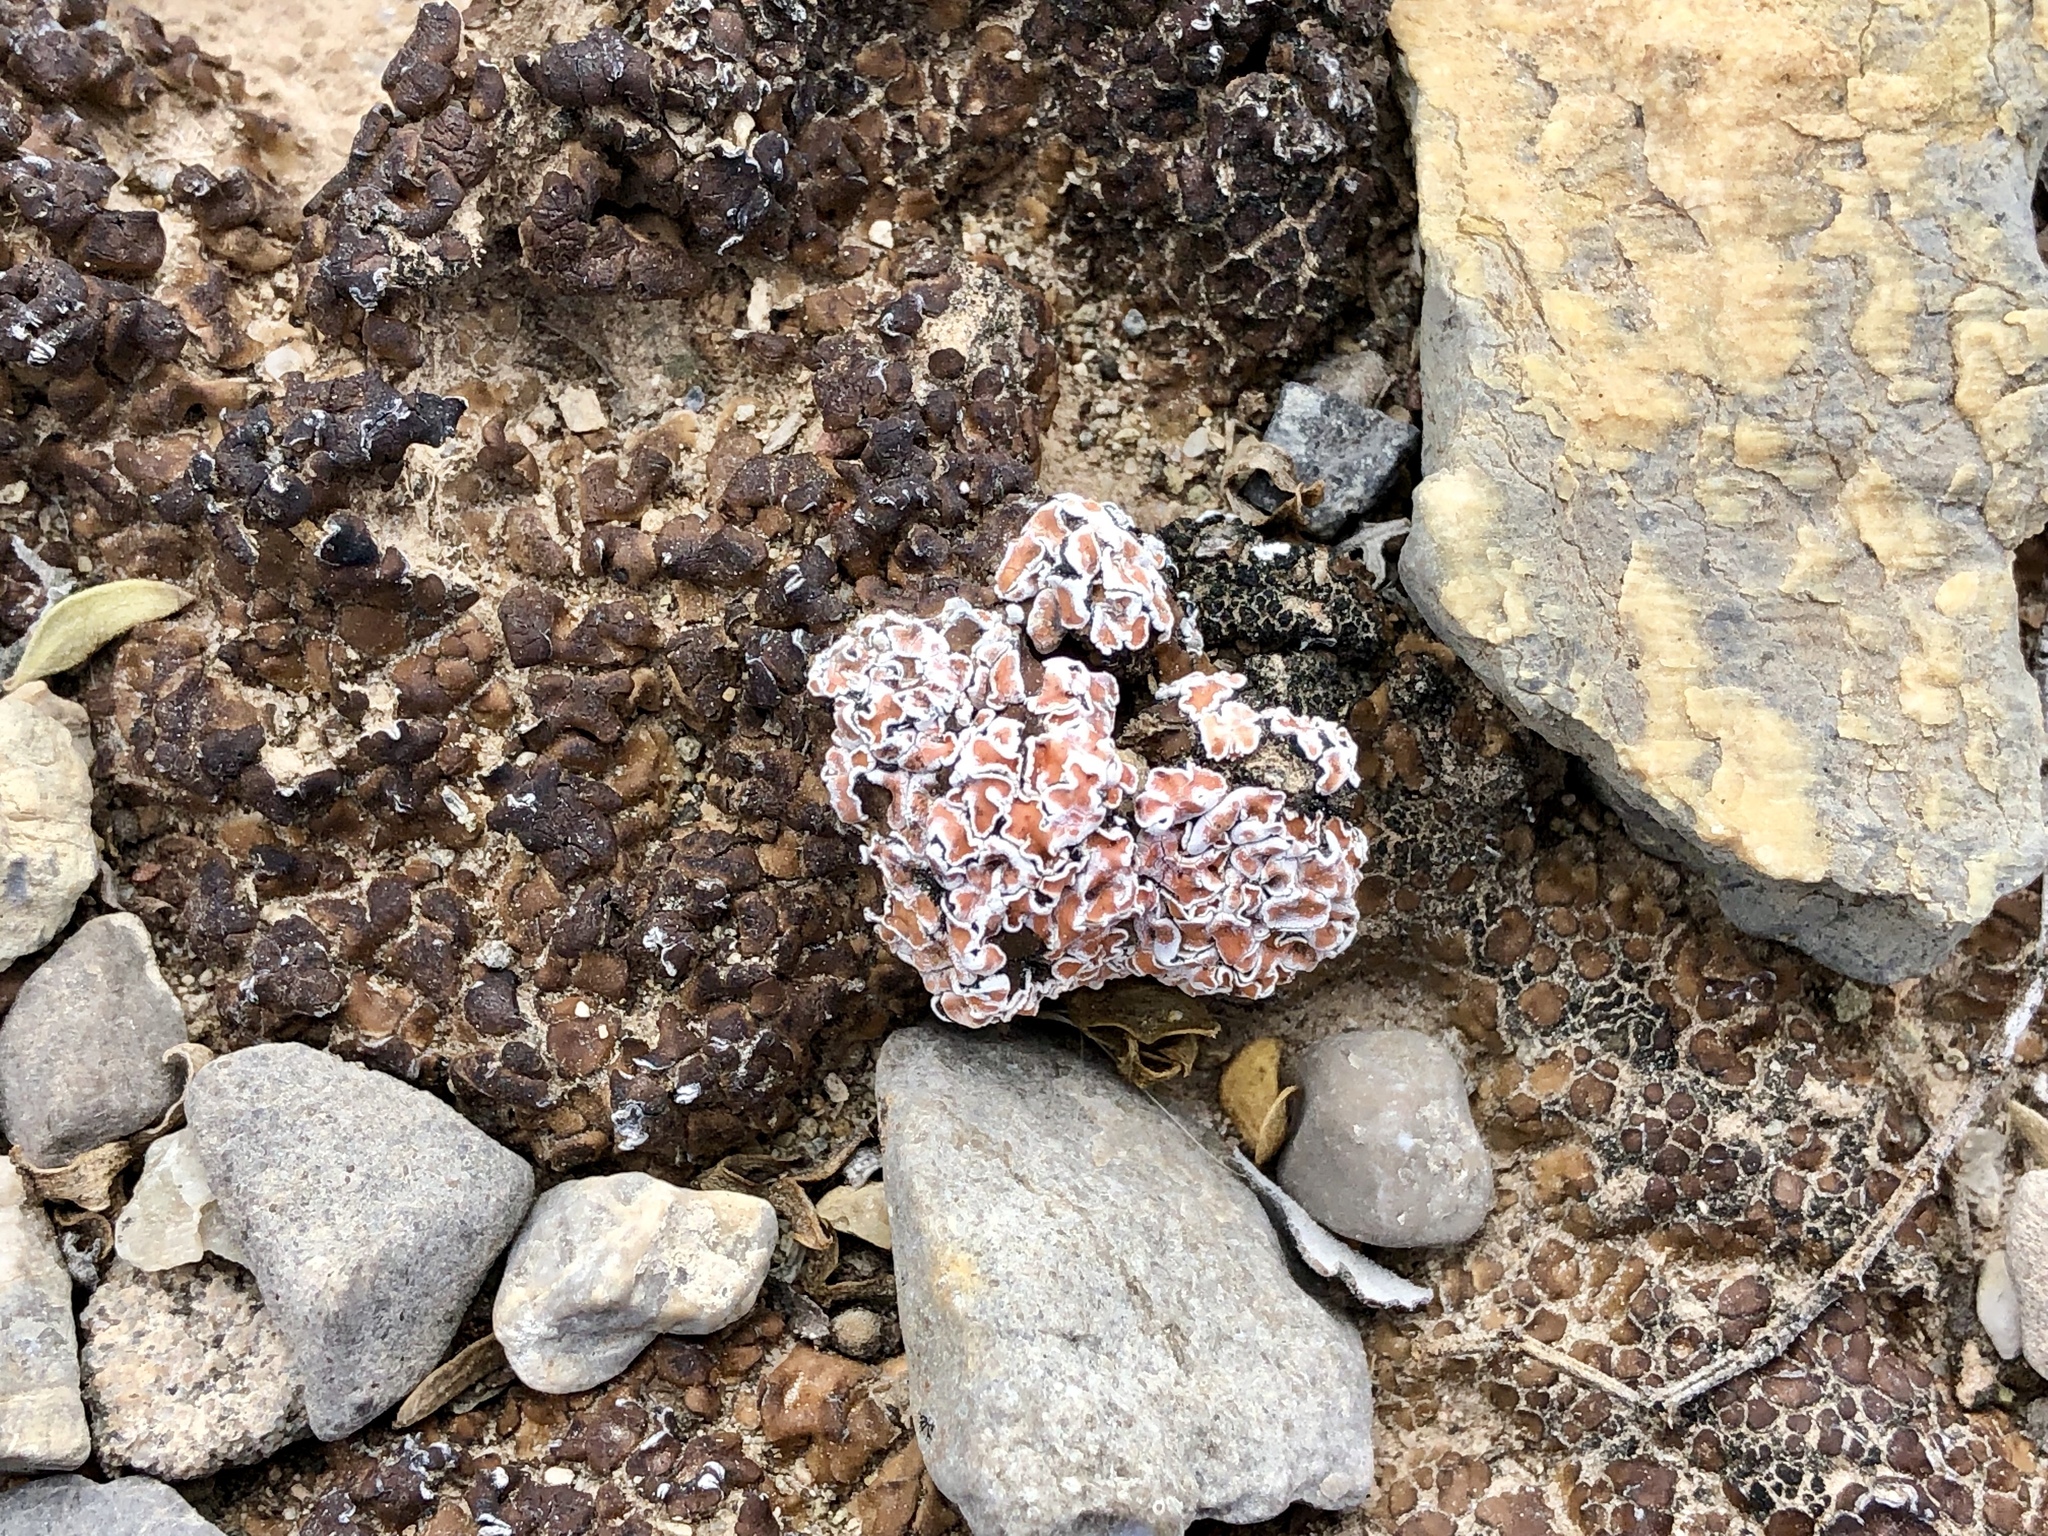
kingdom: Fungi
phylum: Ascomycota
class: Lecanoromycetes
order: Lecanorales
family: Psoraceae
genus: Psora
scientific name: Psora decipiens
